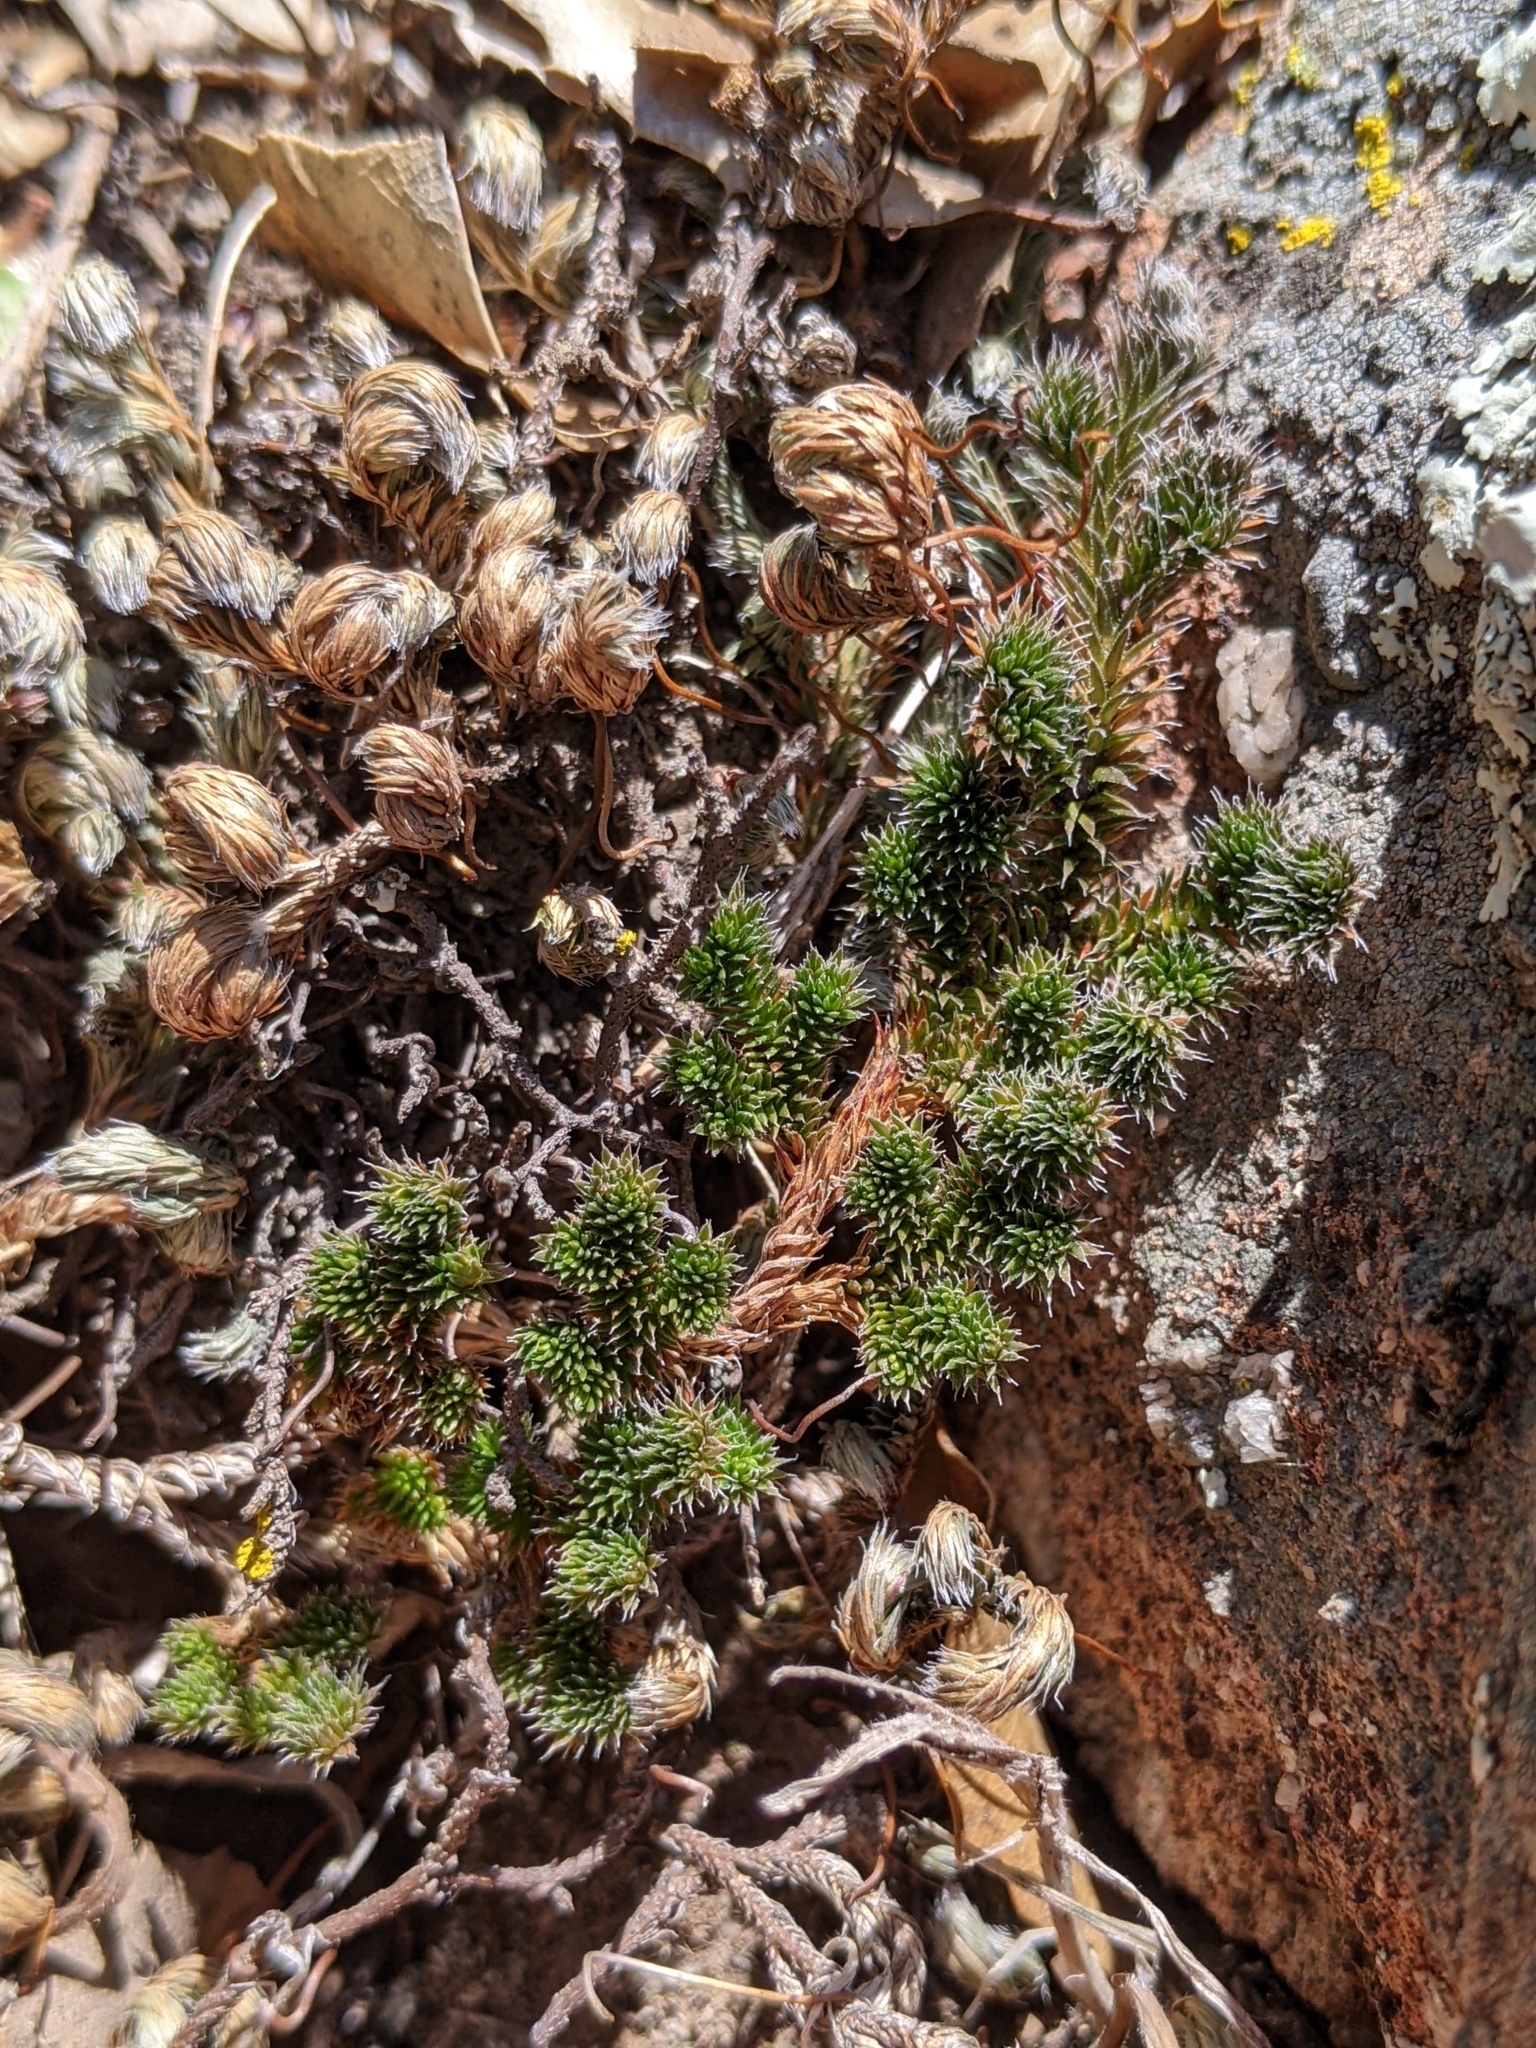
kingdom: Plantae
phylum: Tracheophyta
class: Lycopodiopsida
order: Selaginellales
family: Selaginellaceae
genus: Selaginella
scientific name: Selaginella hansenii
